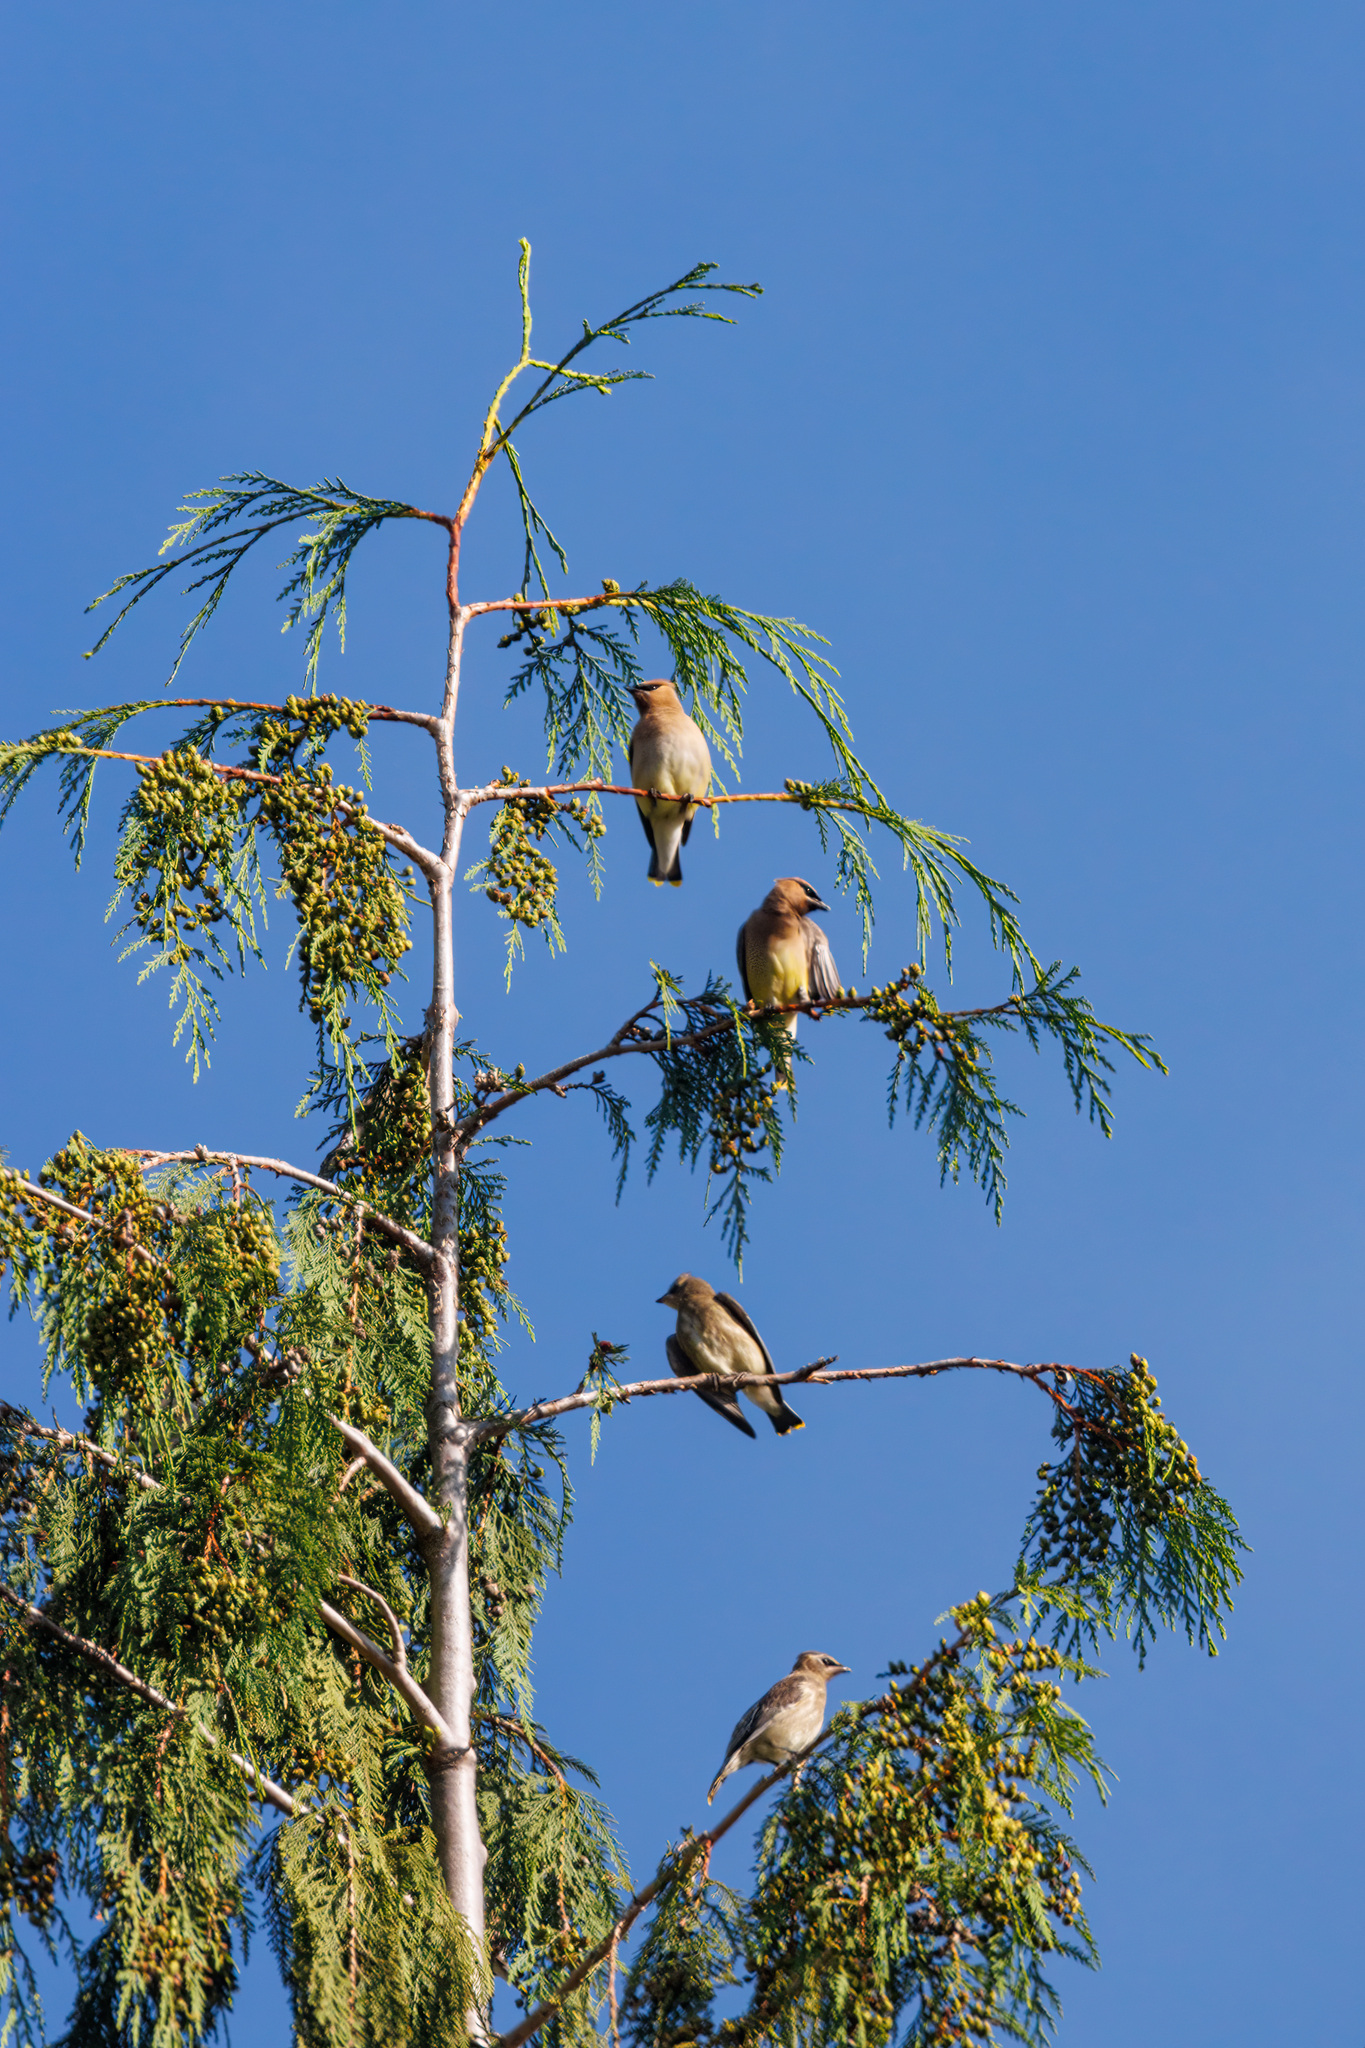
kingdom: Animalia
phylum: Chordata
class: Aves
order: Passeriformes
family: Bombycillidae
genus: Bombycilla
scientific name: Bombycilla cedrorum
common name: Cedar waxwing
